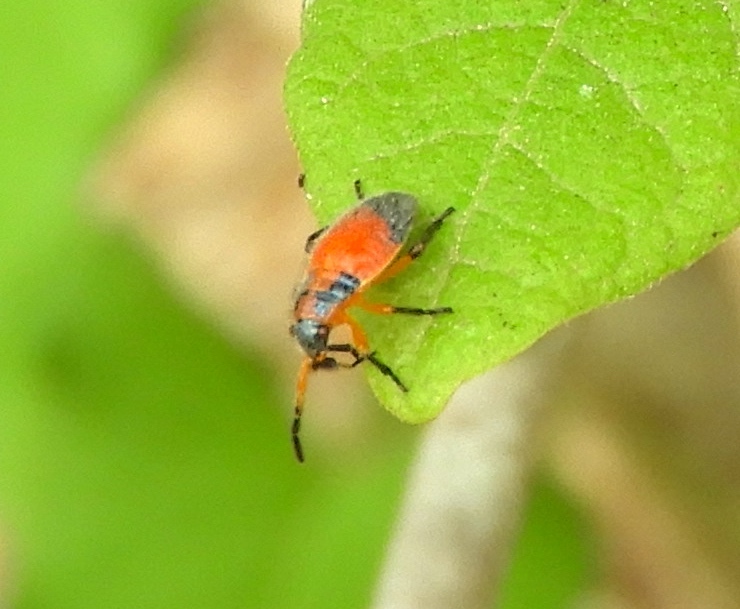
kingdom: Animalia
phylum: Arthropoda
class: Insecta
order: Hemiptera
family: Largidae
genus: Largus
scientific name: Largus
